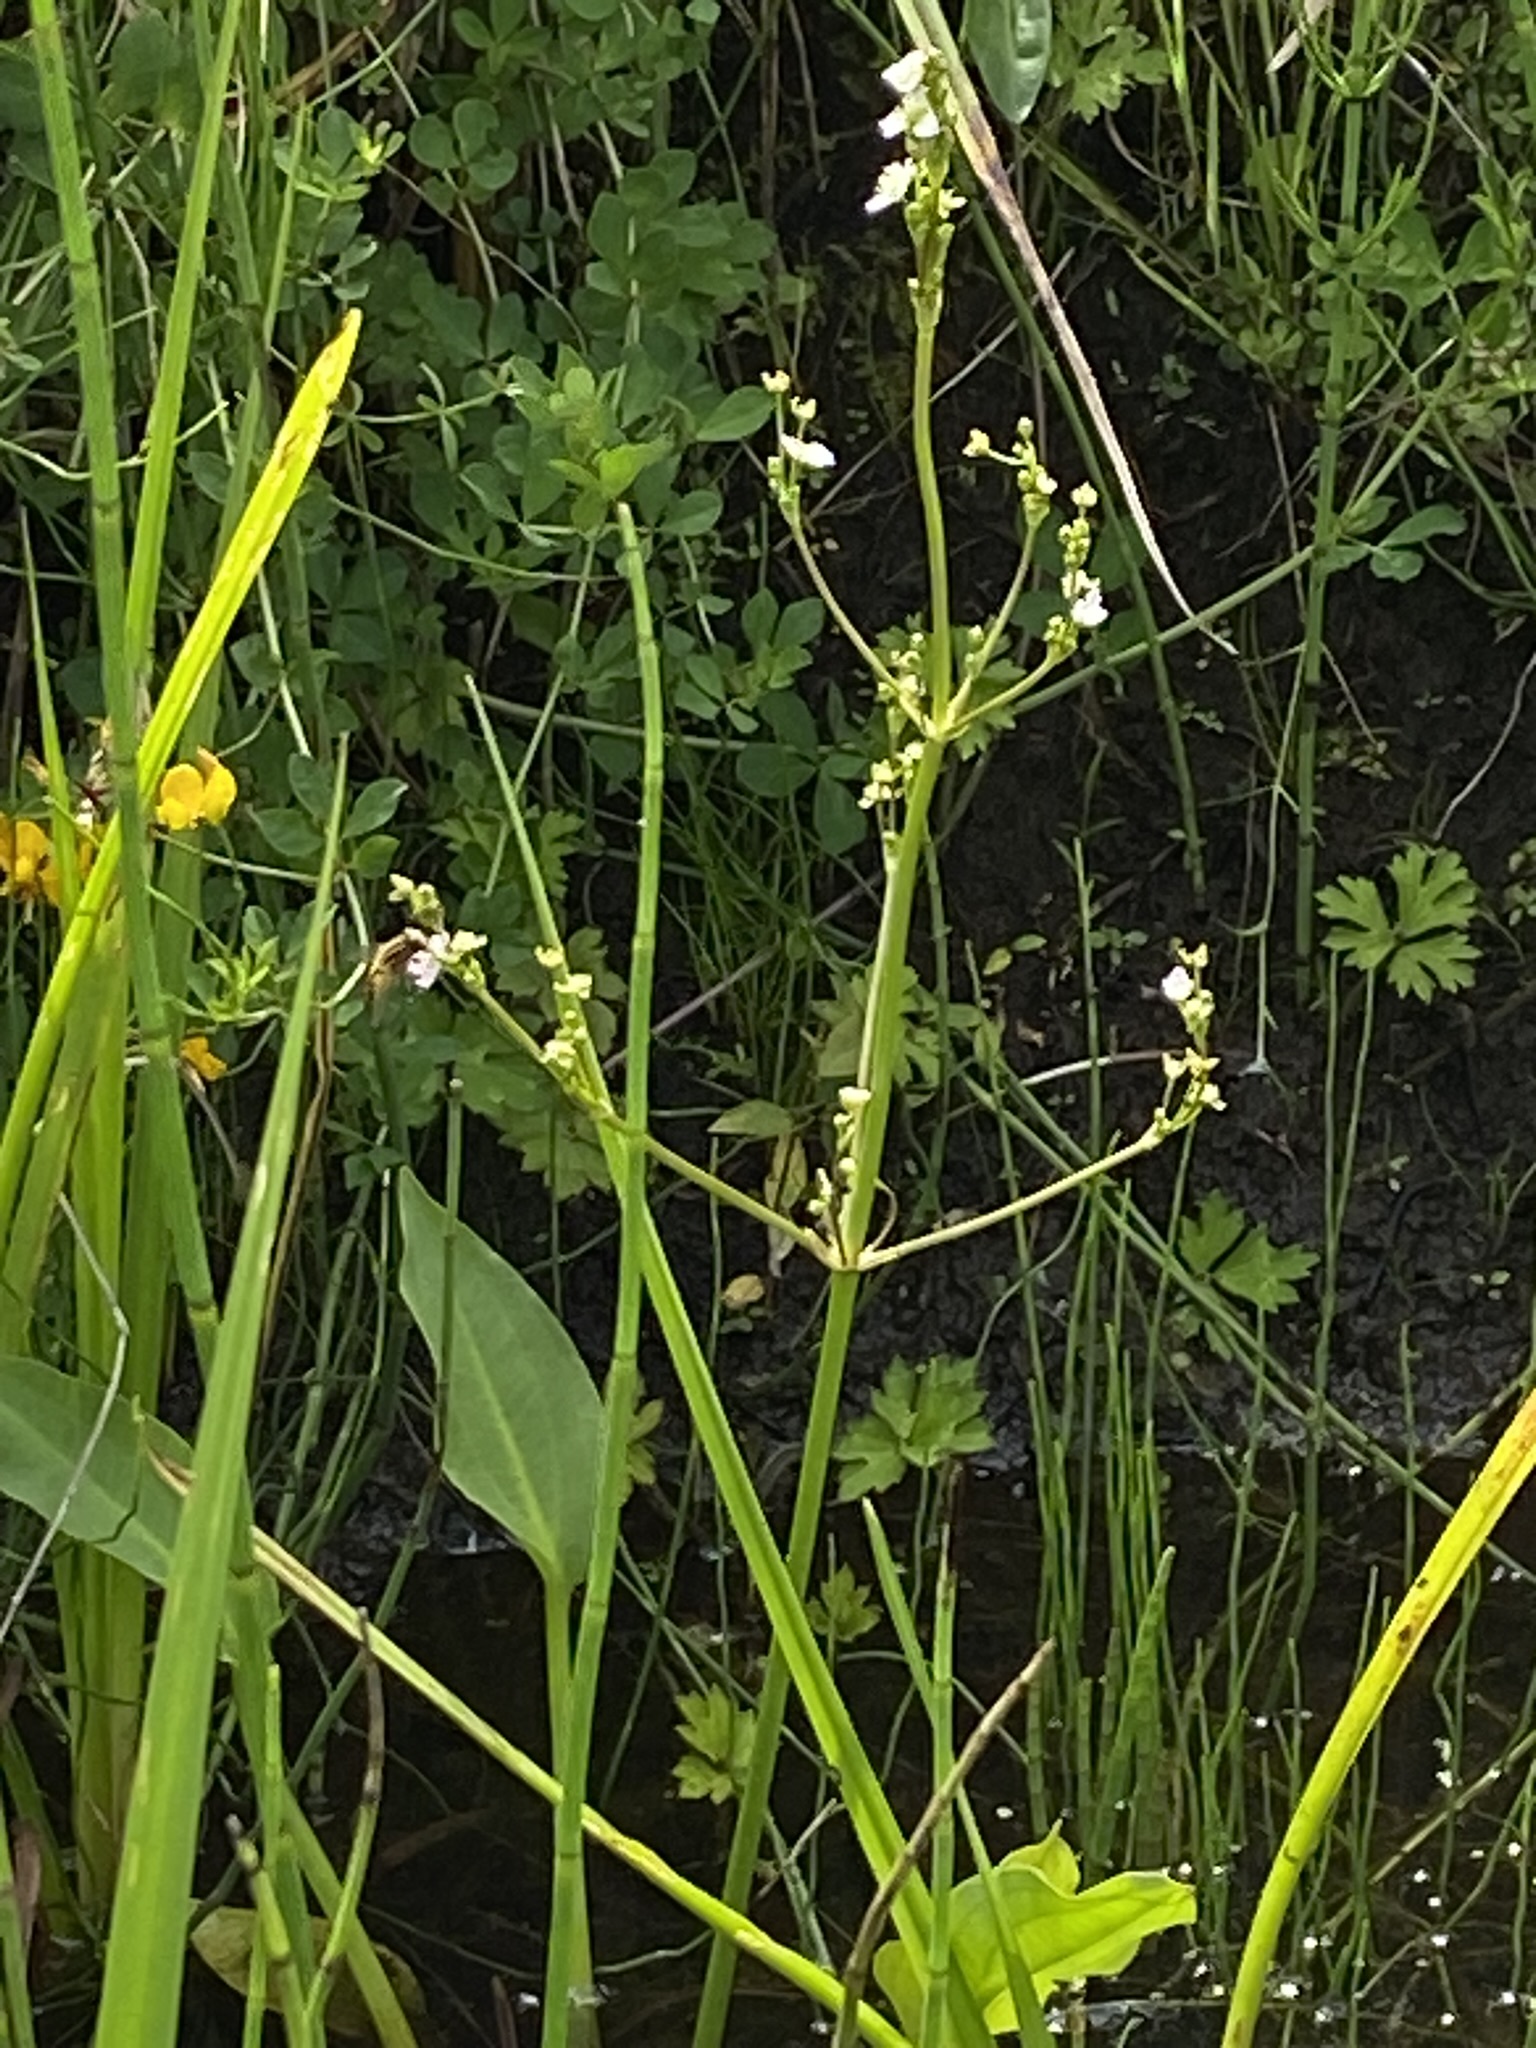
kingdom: Plantae
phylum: Tracheophyta
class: Liliopsida
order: Alismatales
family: Alismataceae
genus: Alisma
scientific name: Alisma plantago-aquatica
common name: Water-plantain
